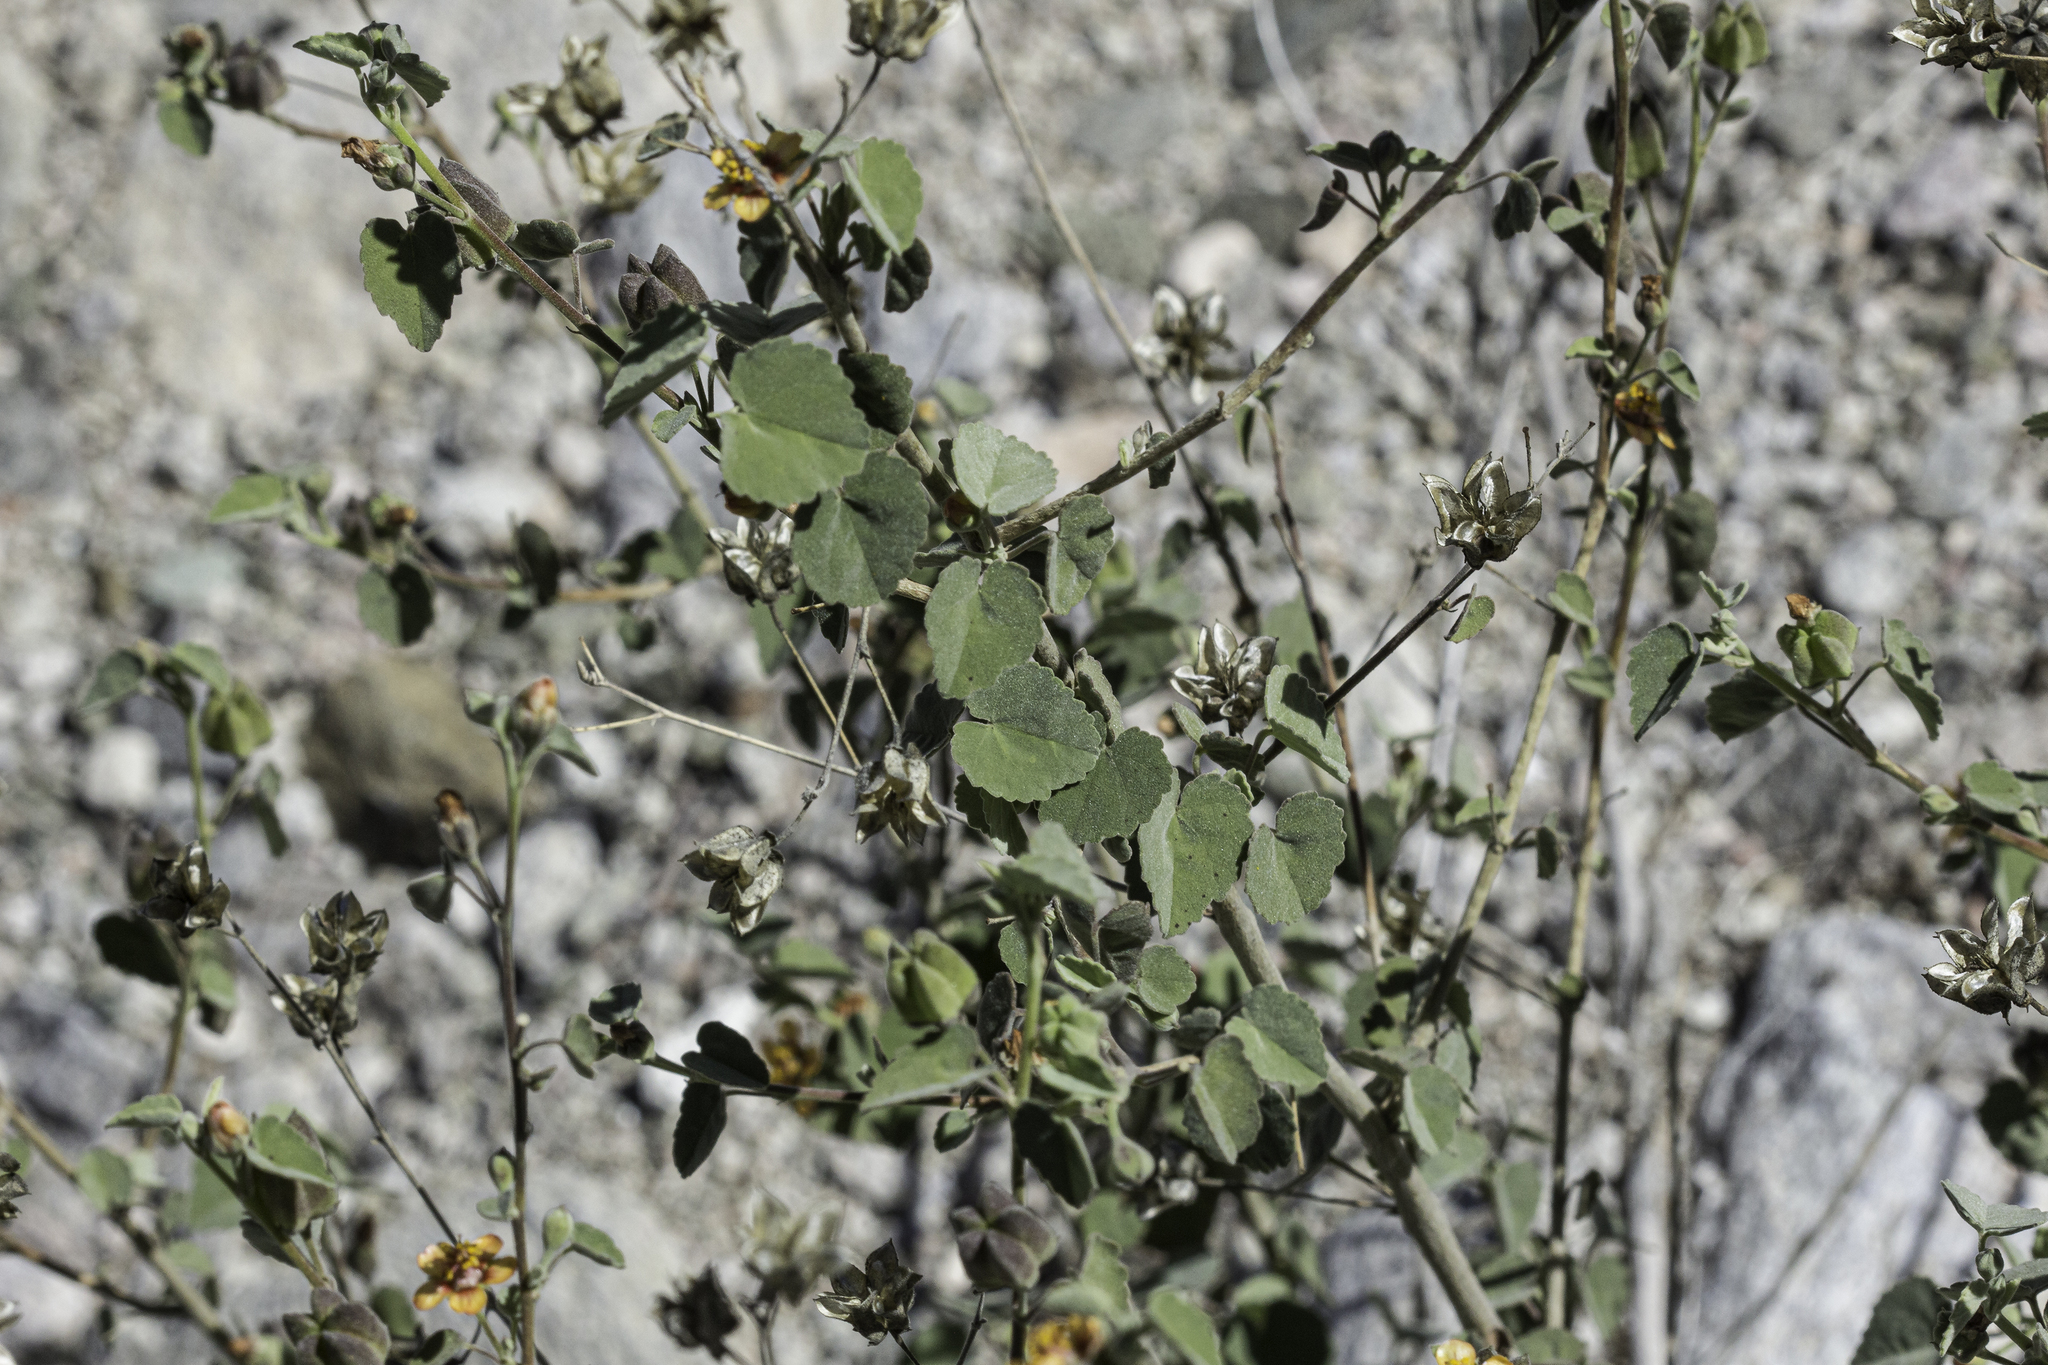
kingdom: Plantae
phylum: Tracheophyta
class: Magnoliopsida
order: Malvales
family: Malvaceae
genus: Abutilon
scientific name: Abutilon incanum
